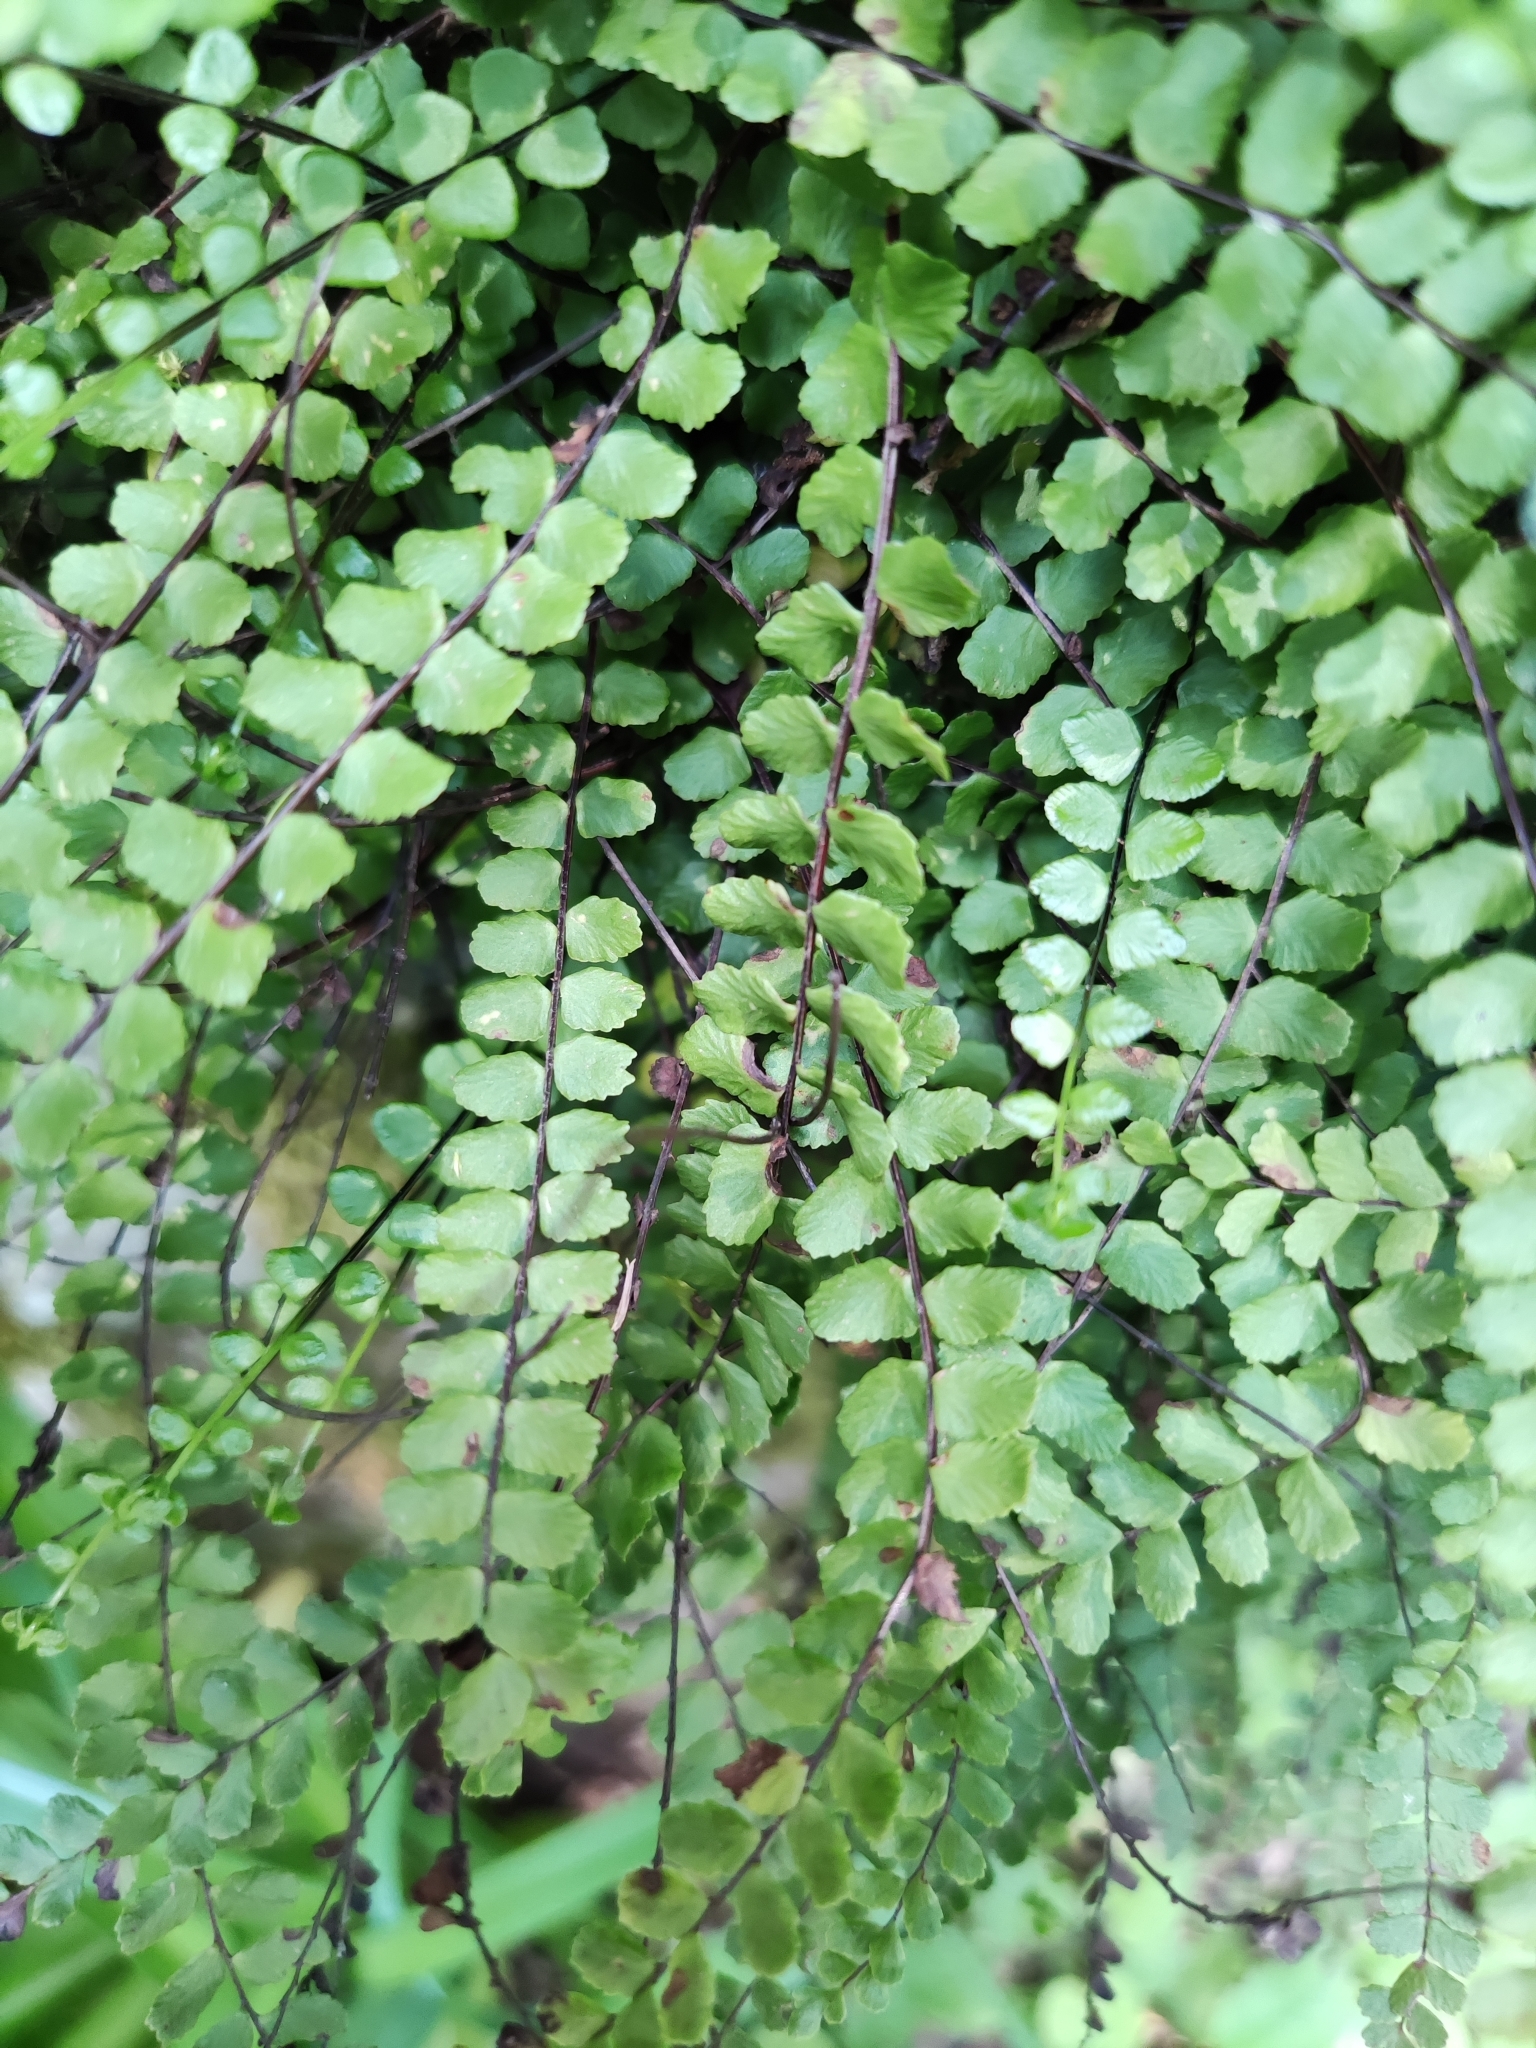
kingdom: Plantae
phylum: Tracheophyta
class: Polypodiopsida
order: Polypodiales
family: Aspleniaceae
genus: Asplenium
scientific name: Asplenium trichomanes
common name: Maidenhair spleenwort
